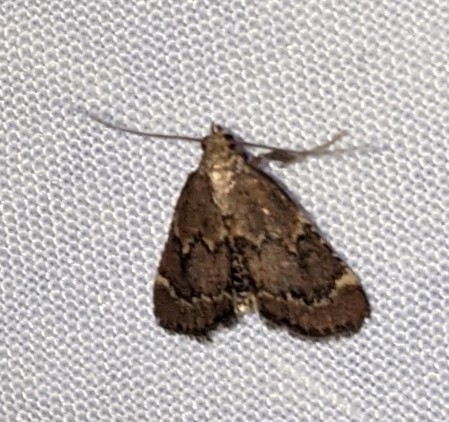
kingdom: Animalia
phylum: Arthropoda
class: Insecta
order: Lepidoptera
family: Pyralidae
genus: Hypsopygia
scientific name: Hypsopygia intermedialis
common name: Red-shawled moth
